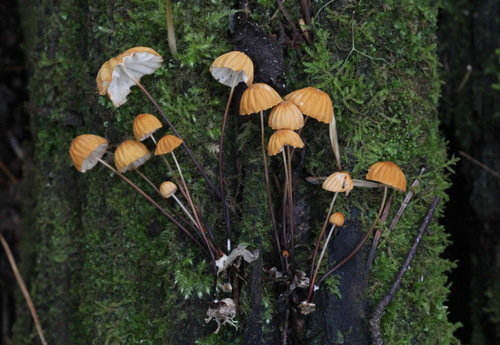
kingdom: Fungi
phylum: Basidiomycota
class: Agaricomycetes
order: Agaricales
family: Marasmiaceae
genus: Marasmius
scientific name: Marasmius siccus
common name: Orange pinwheel
